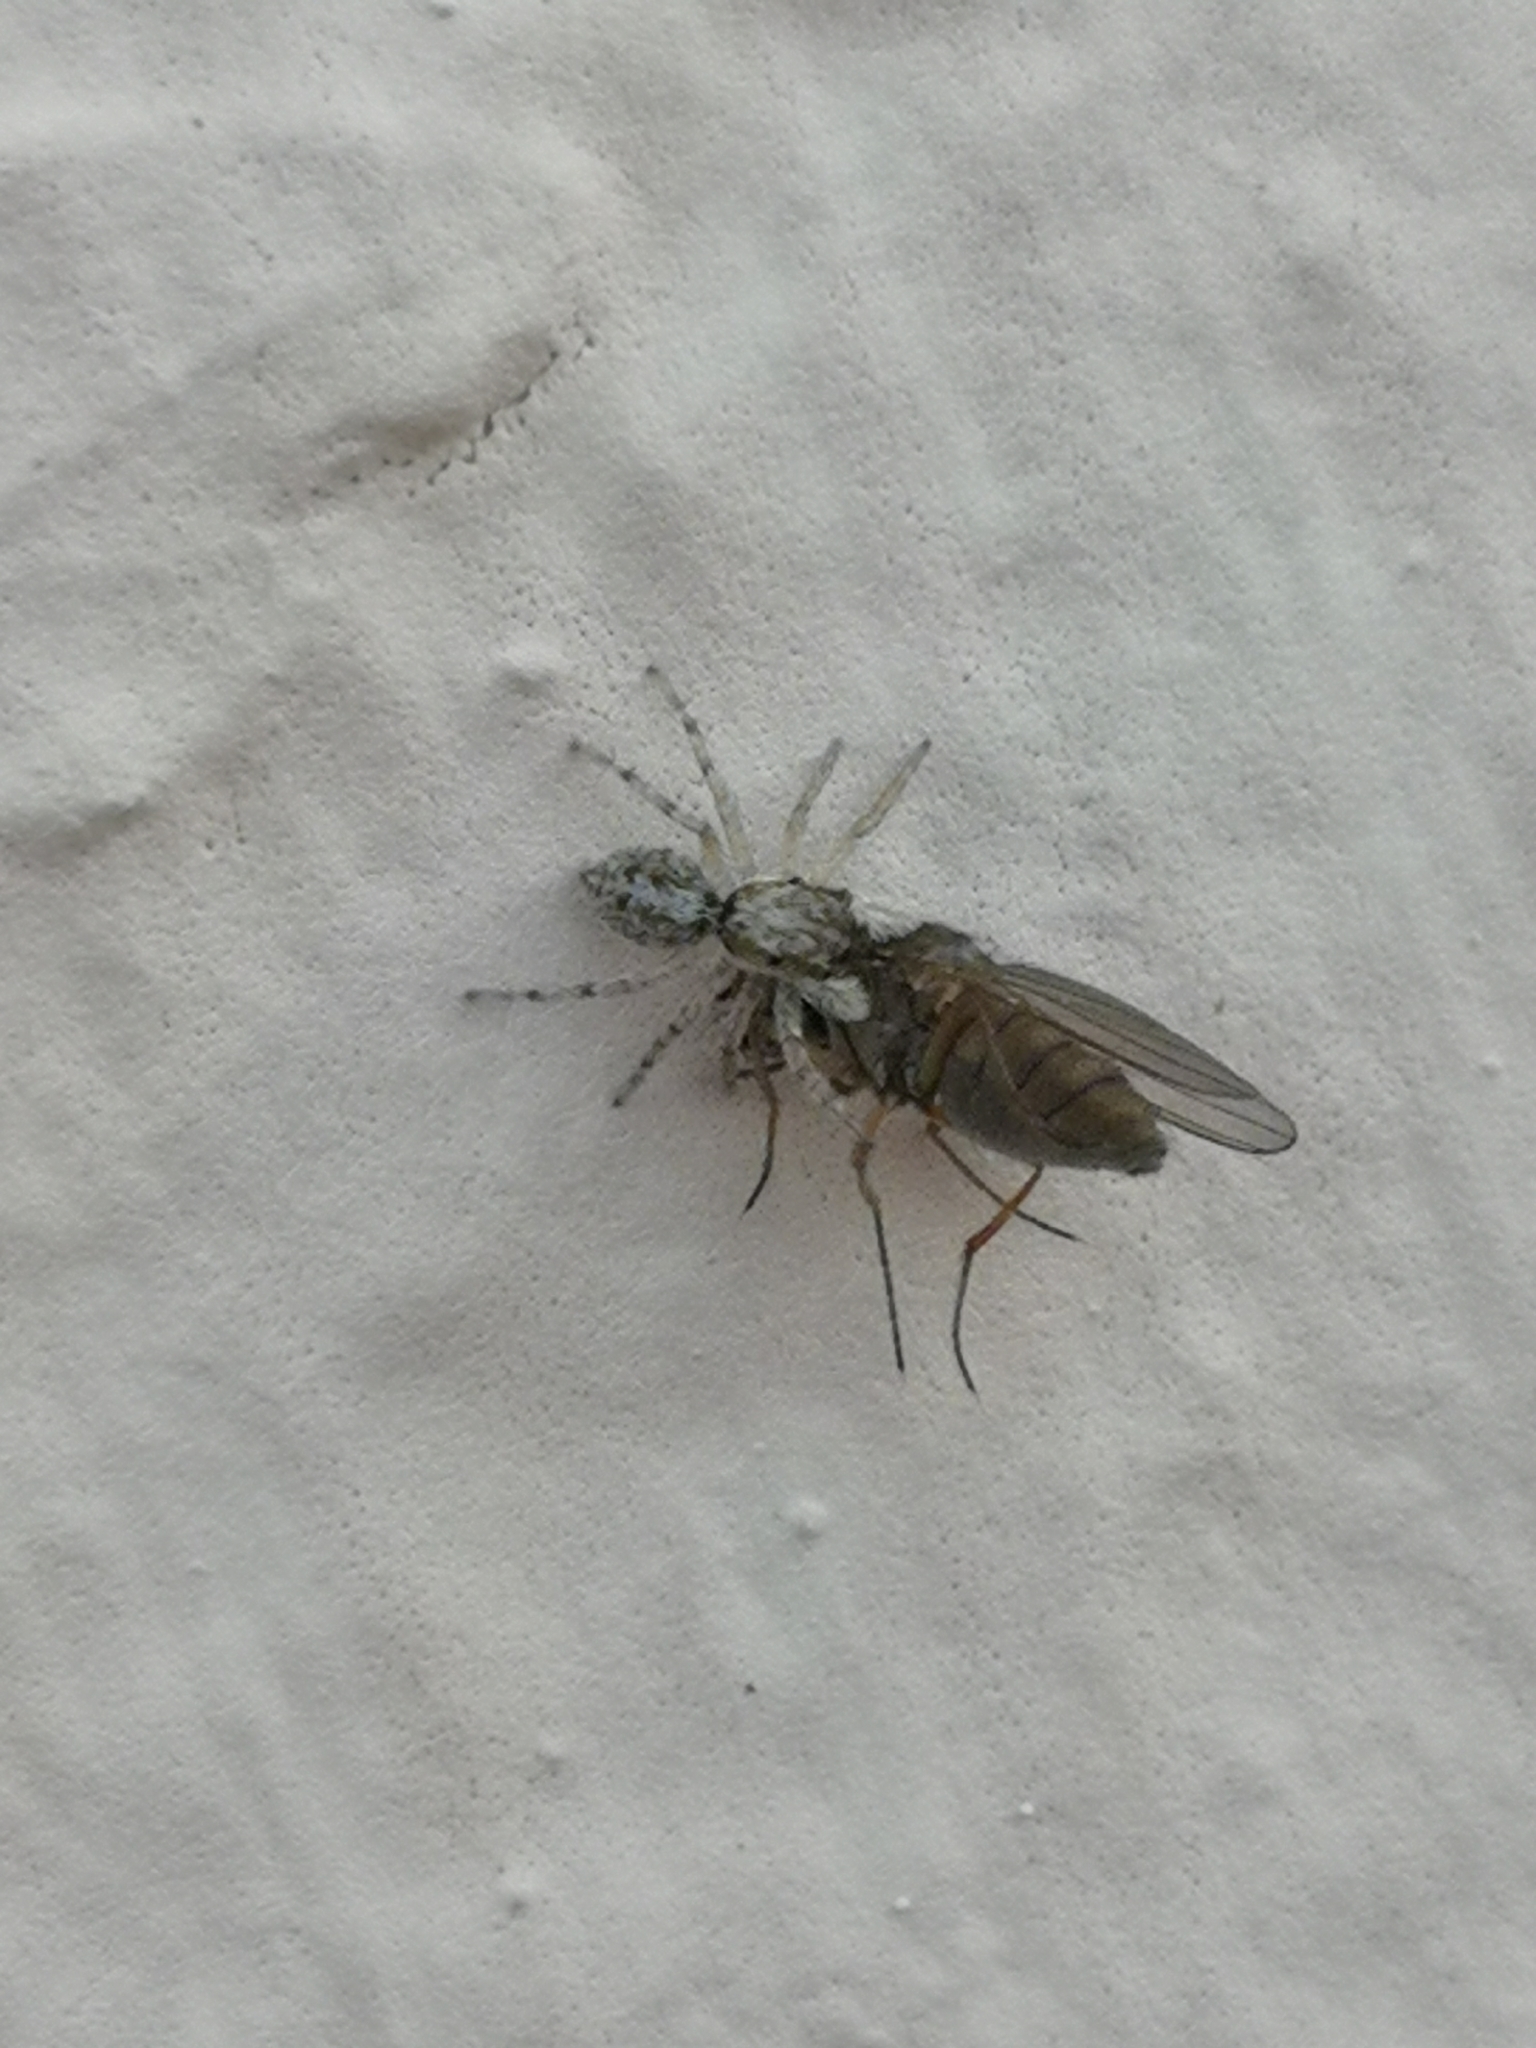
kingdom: Animalia
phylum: Arthropoda
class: Arachnida
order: Araneae
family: Salticidae
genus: Menemerus
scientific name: Menemerus semilimbatus
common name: Jumping spider
